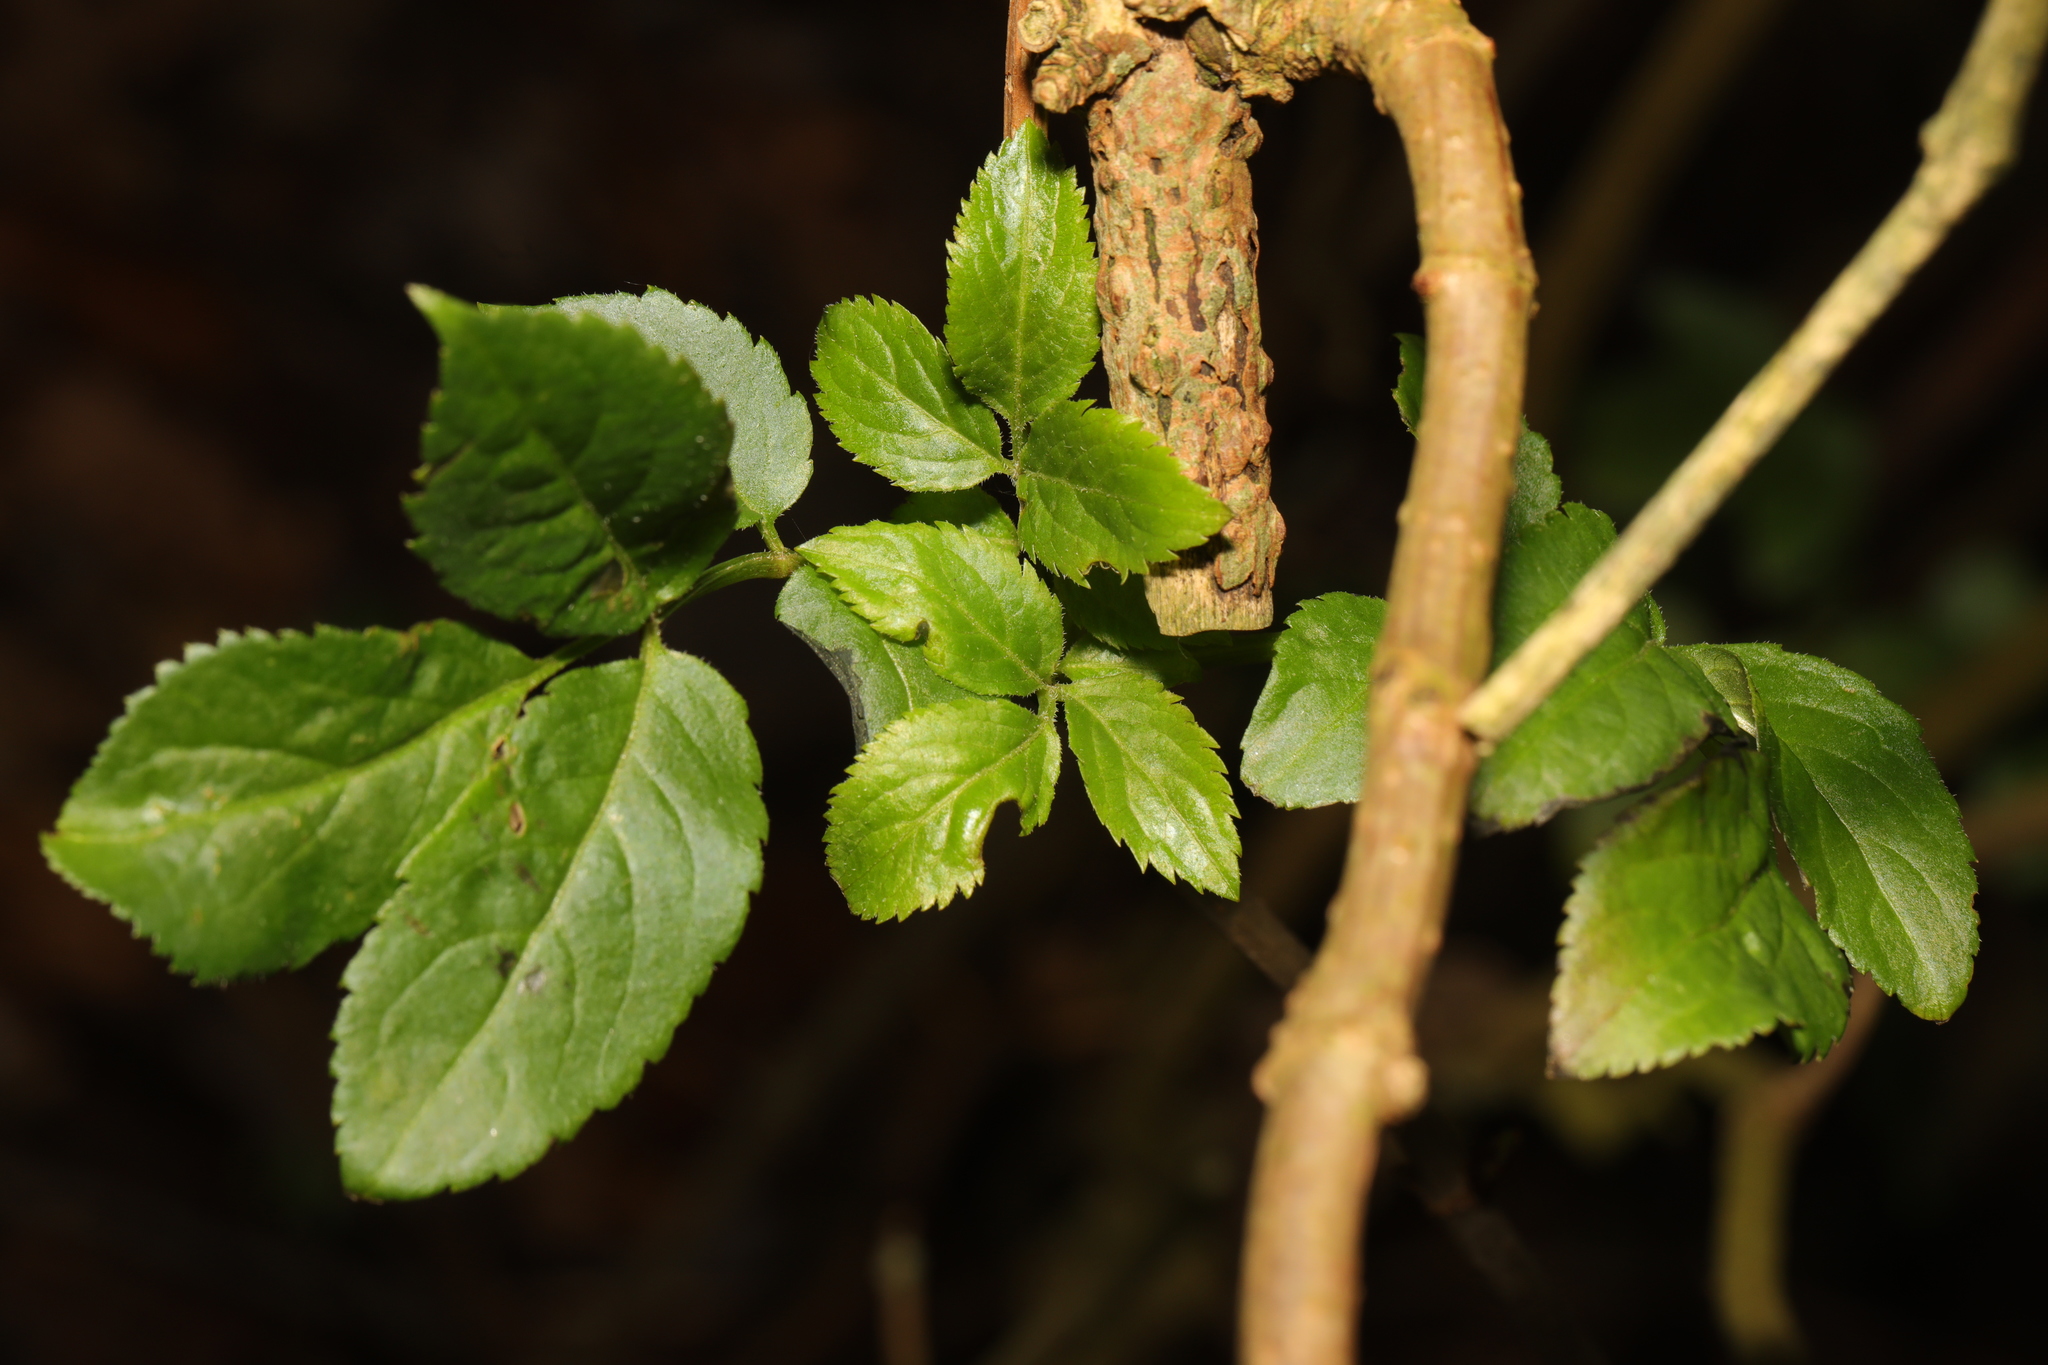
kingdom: Plantae
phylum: Tracheophyta
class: Magnoliopsida
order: Dipsacales
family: Viburnaceae
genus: Sambucus
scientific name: Sambucus nigra
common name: Elder
